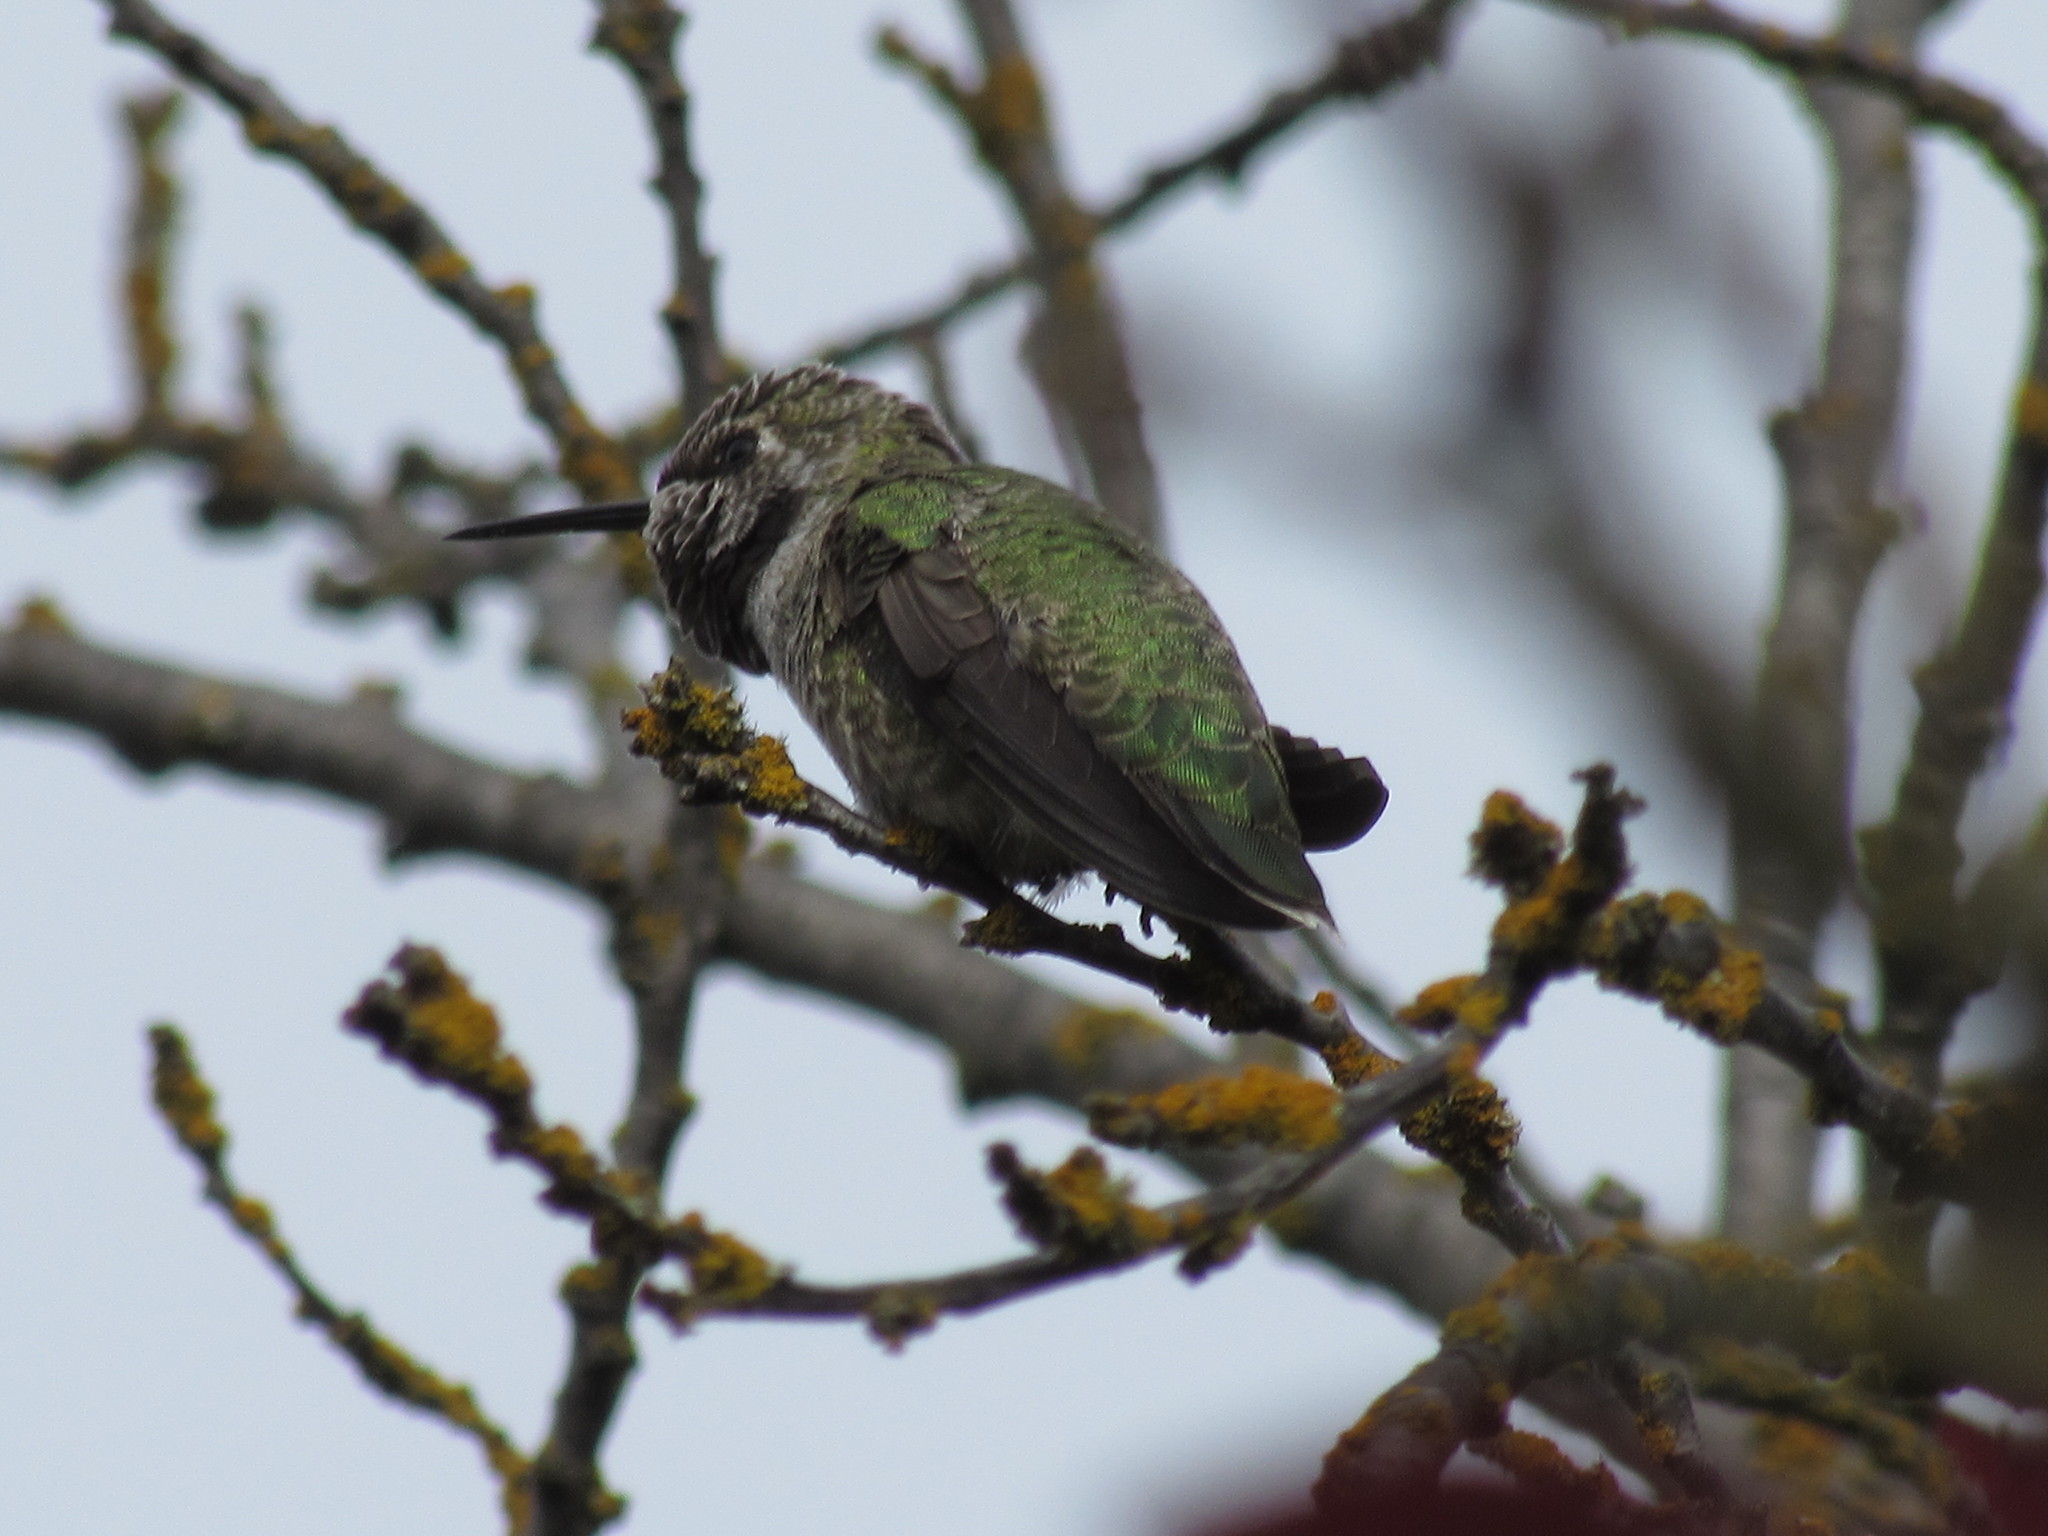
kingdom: Animalia
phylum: Chordata
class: Aves
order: Apodiformes
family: Trochilidae
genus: Calypte
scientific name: Calypte anna
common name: Anna's hummingbird
